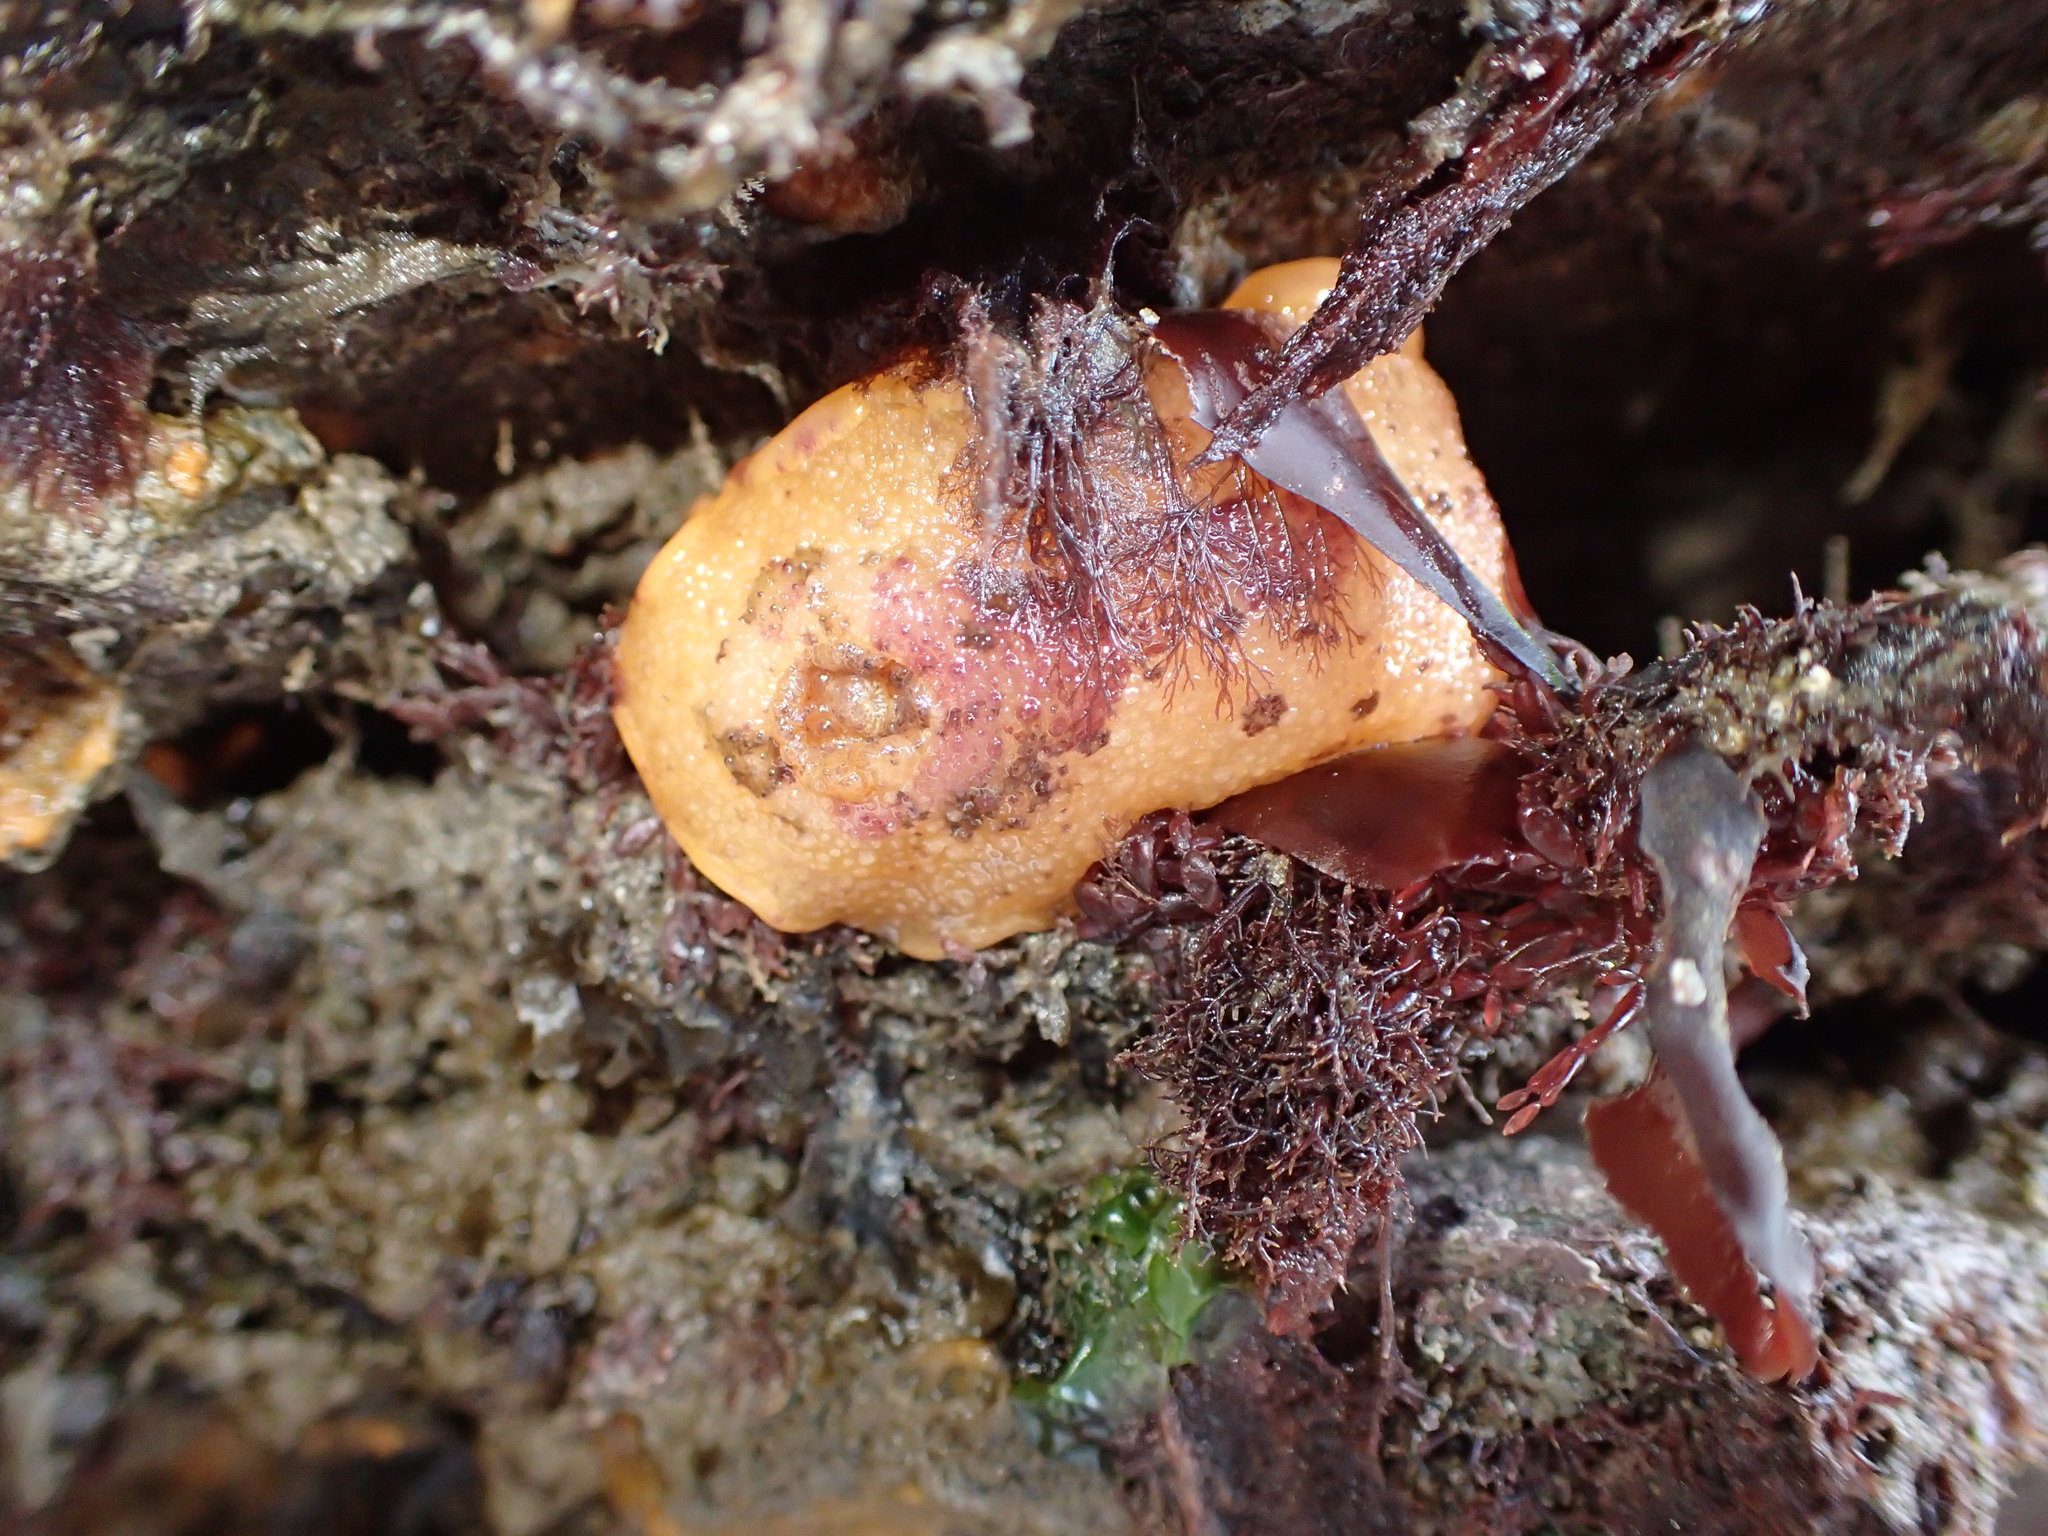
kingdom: Animalia
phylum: Mollusca
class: Gastropoda
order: Nudibranchia
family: Dorididae
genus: Doris
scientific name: Doris pseudoargus
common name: Sea lemon
